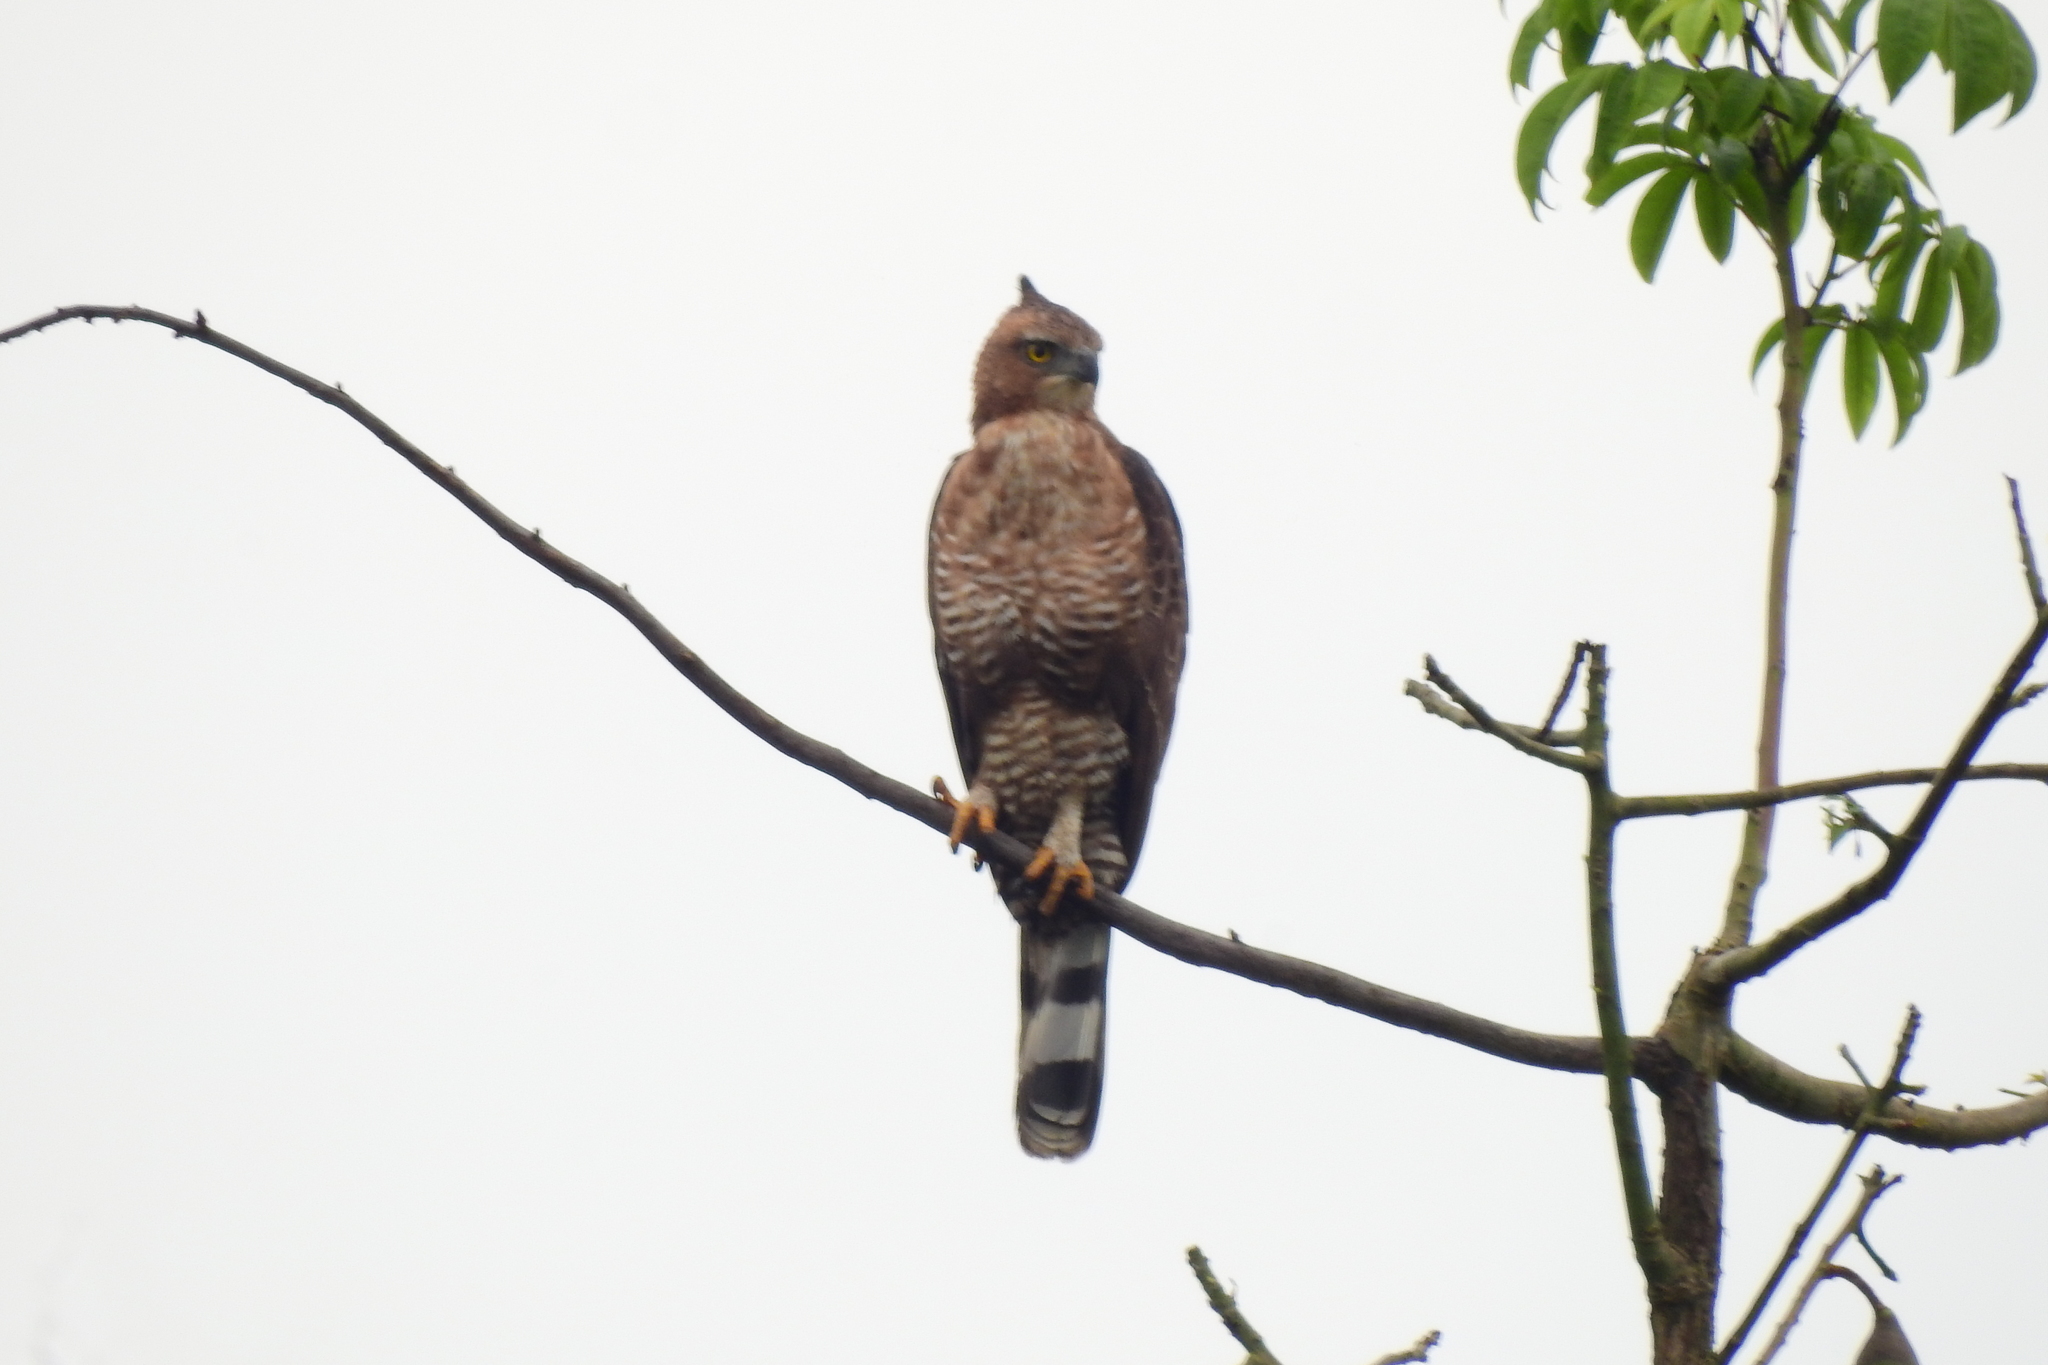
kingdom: Animalia
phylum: Chordata
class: Aves
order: Accipitriformes
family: Accipitridae
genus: Nisaetus
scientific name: Nisaetus nanus
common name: Wallace's hawk-eagle
